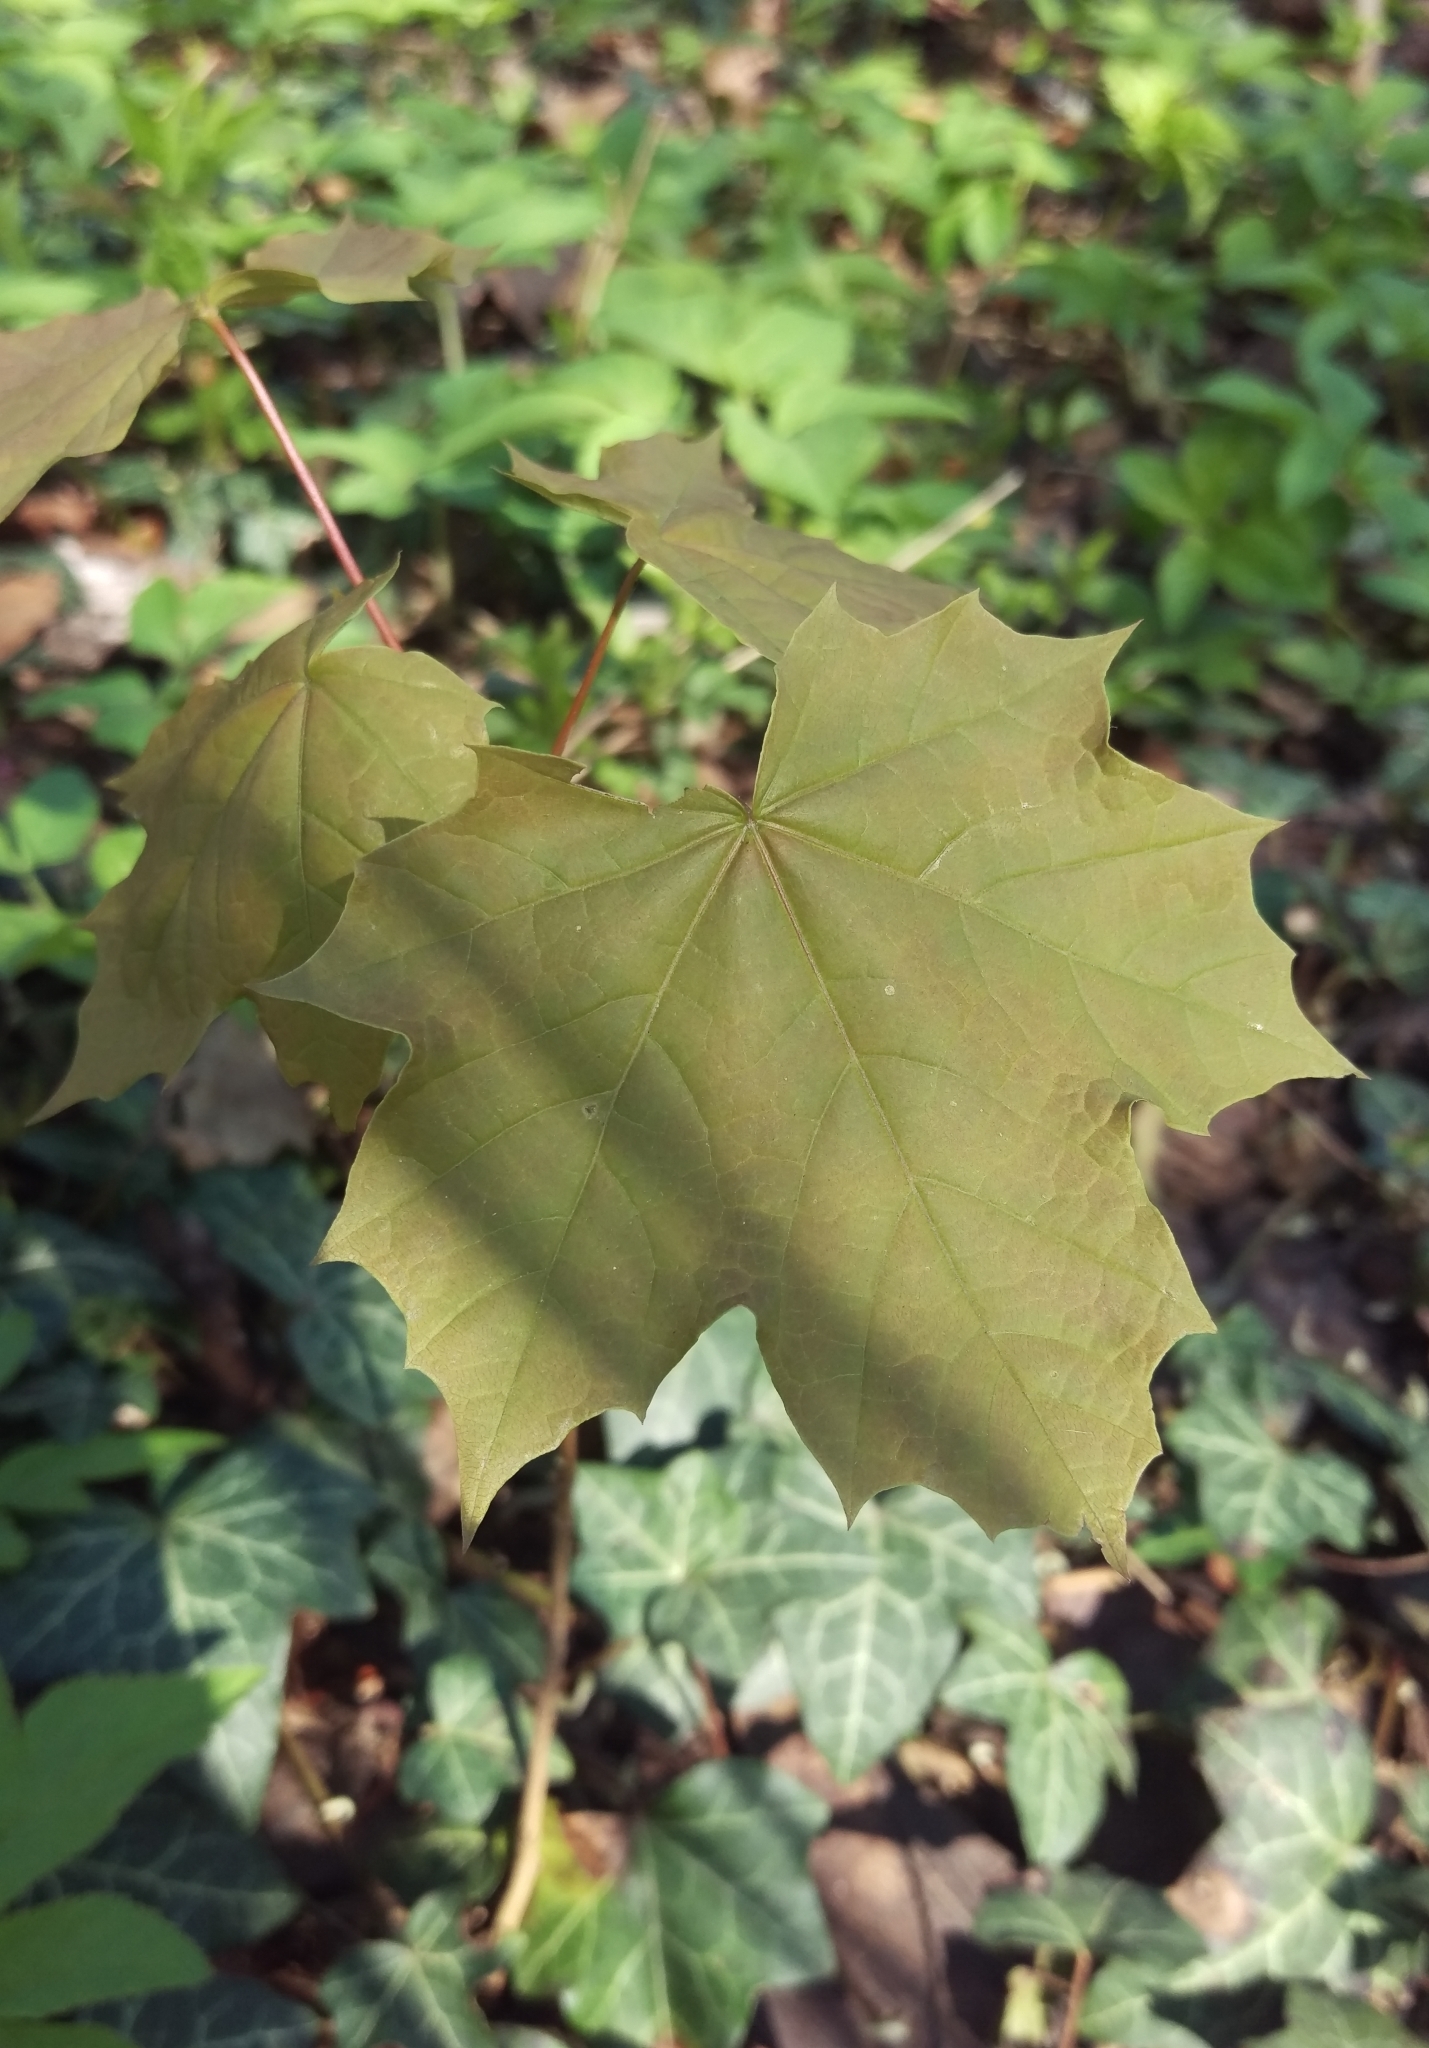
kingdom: Plantae
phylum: Tracheophyta
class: Magnoliopsida
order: Sapindales
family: Sapindaceae
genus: Acer
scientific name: Acer platanoides
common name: Norway maple
